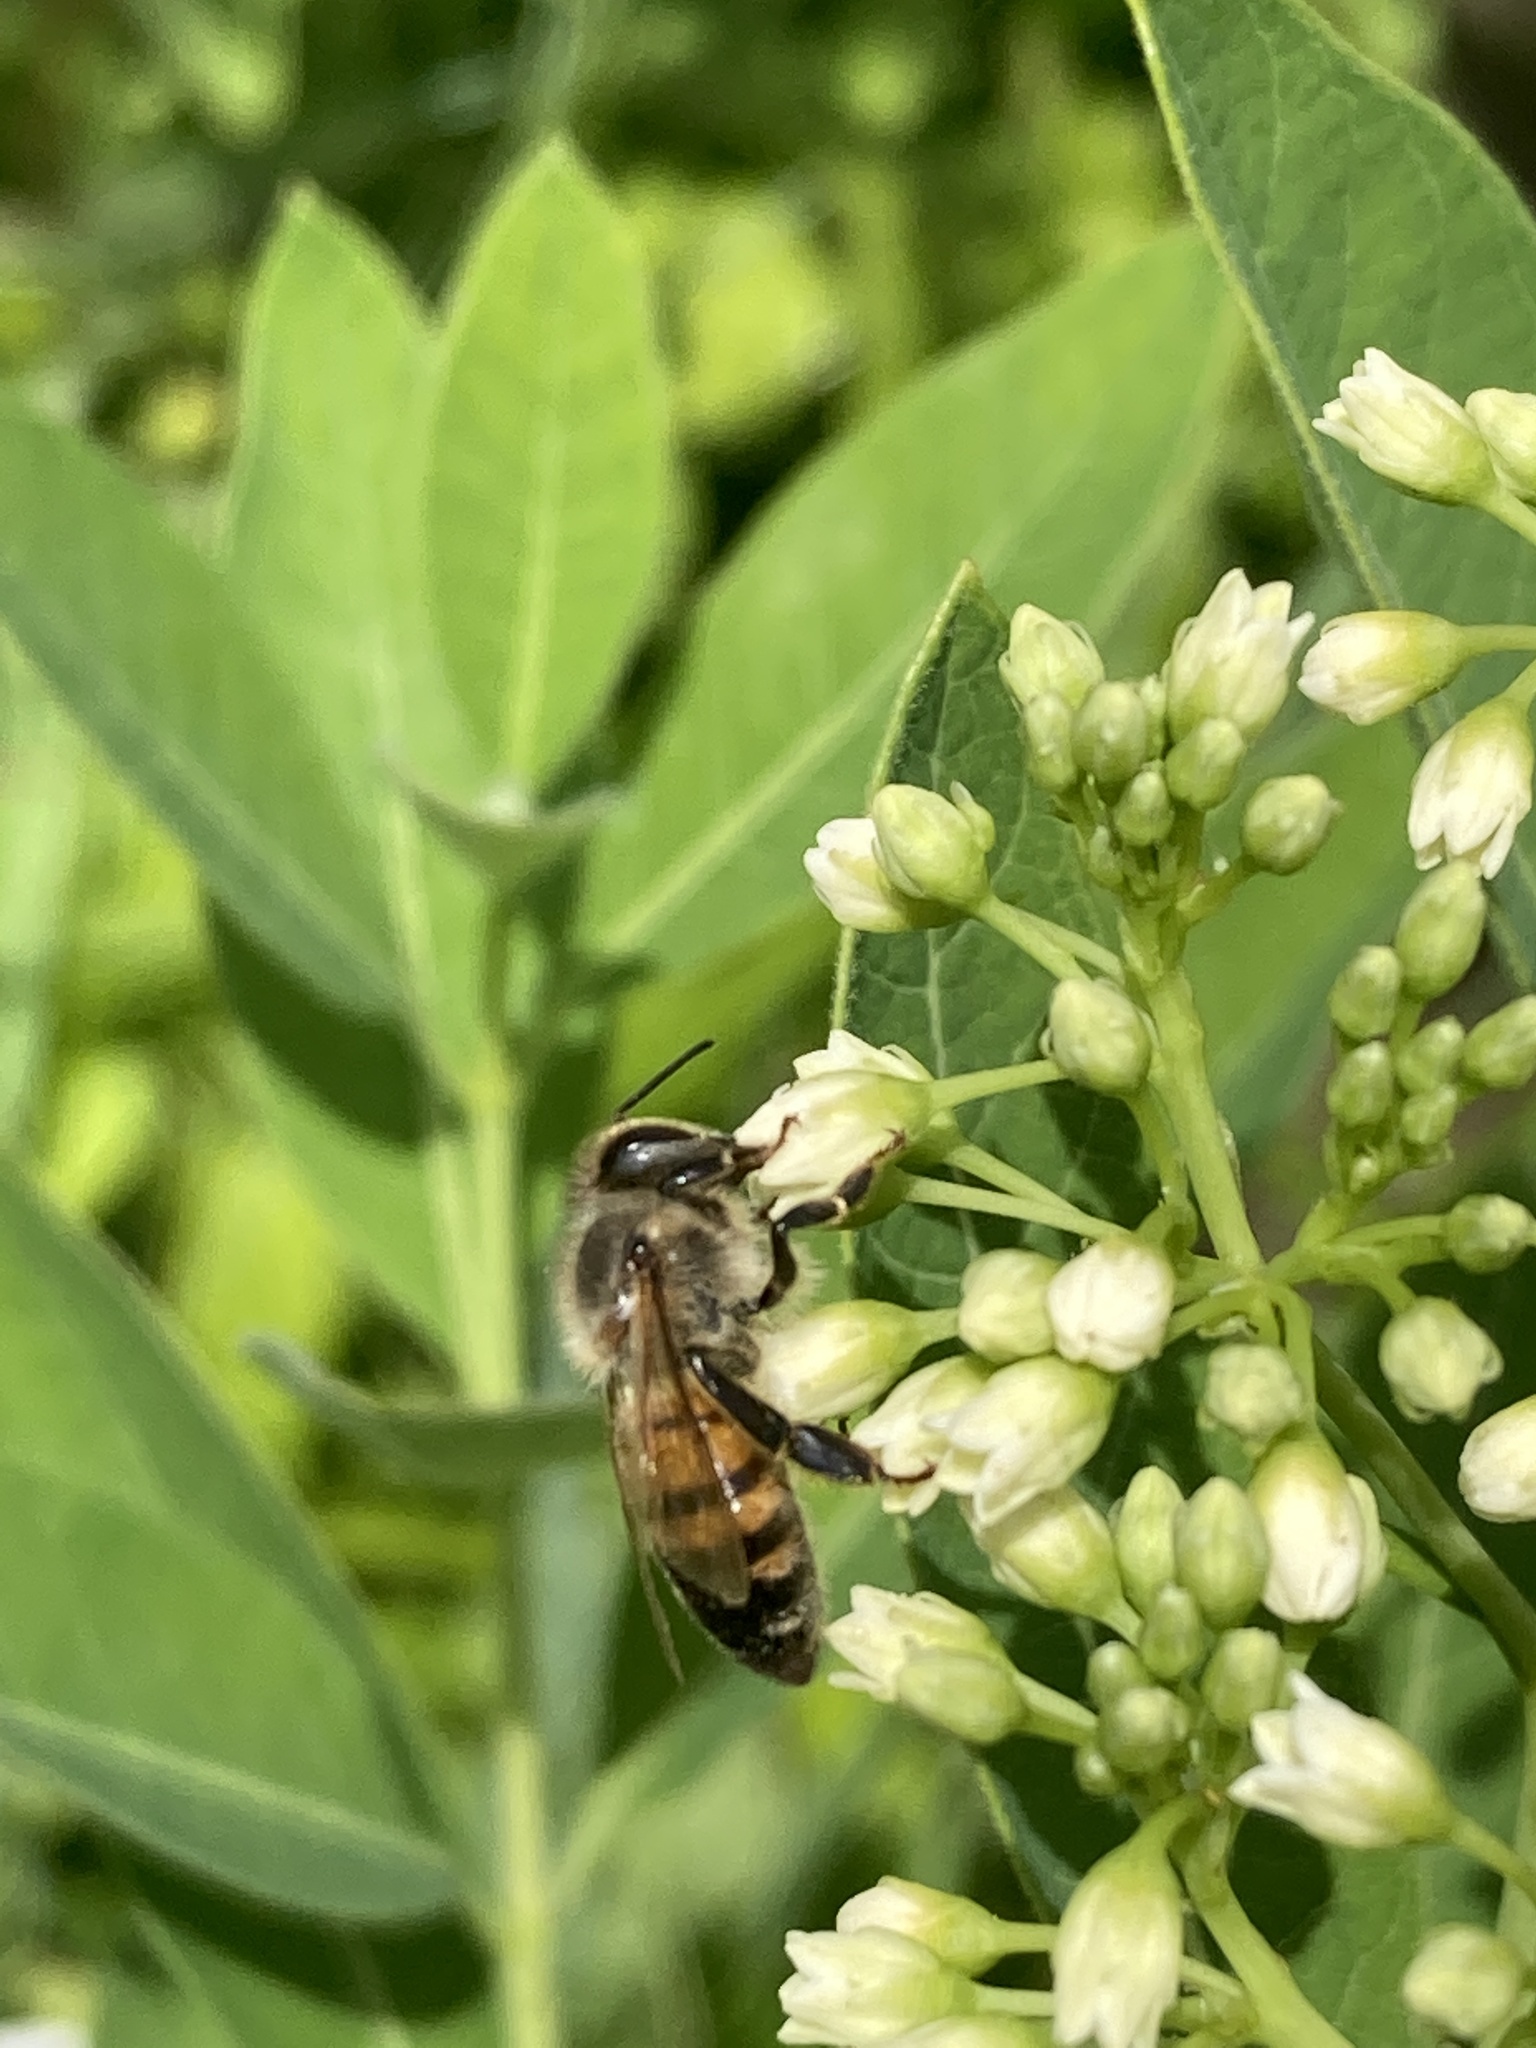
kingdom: Animalia
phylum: Arthropoda
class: Insecta
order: Hymenoptera
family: Apidae
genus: Apis
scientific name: Apis mellifera
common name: Honey bee
